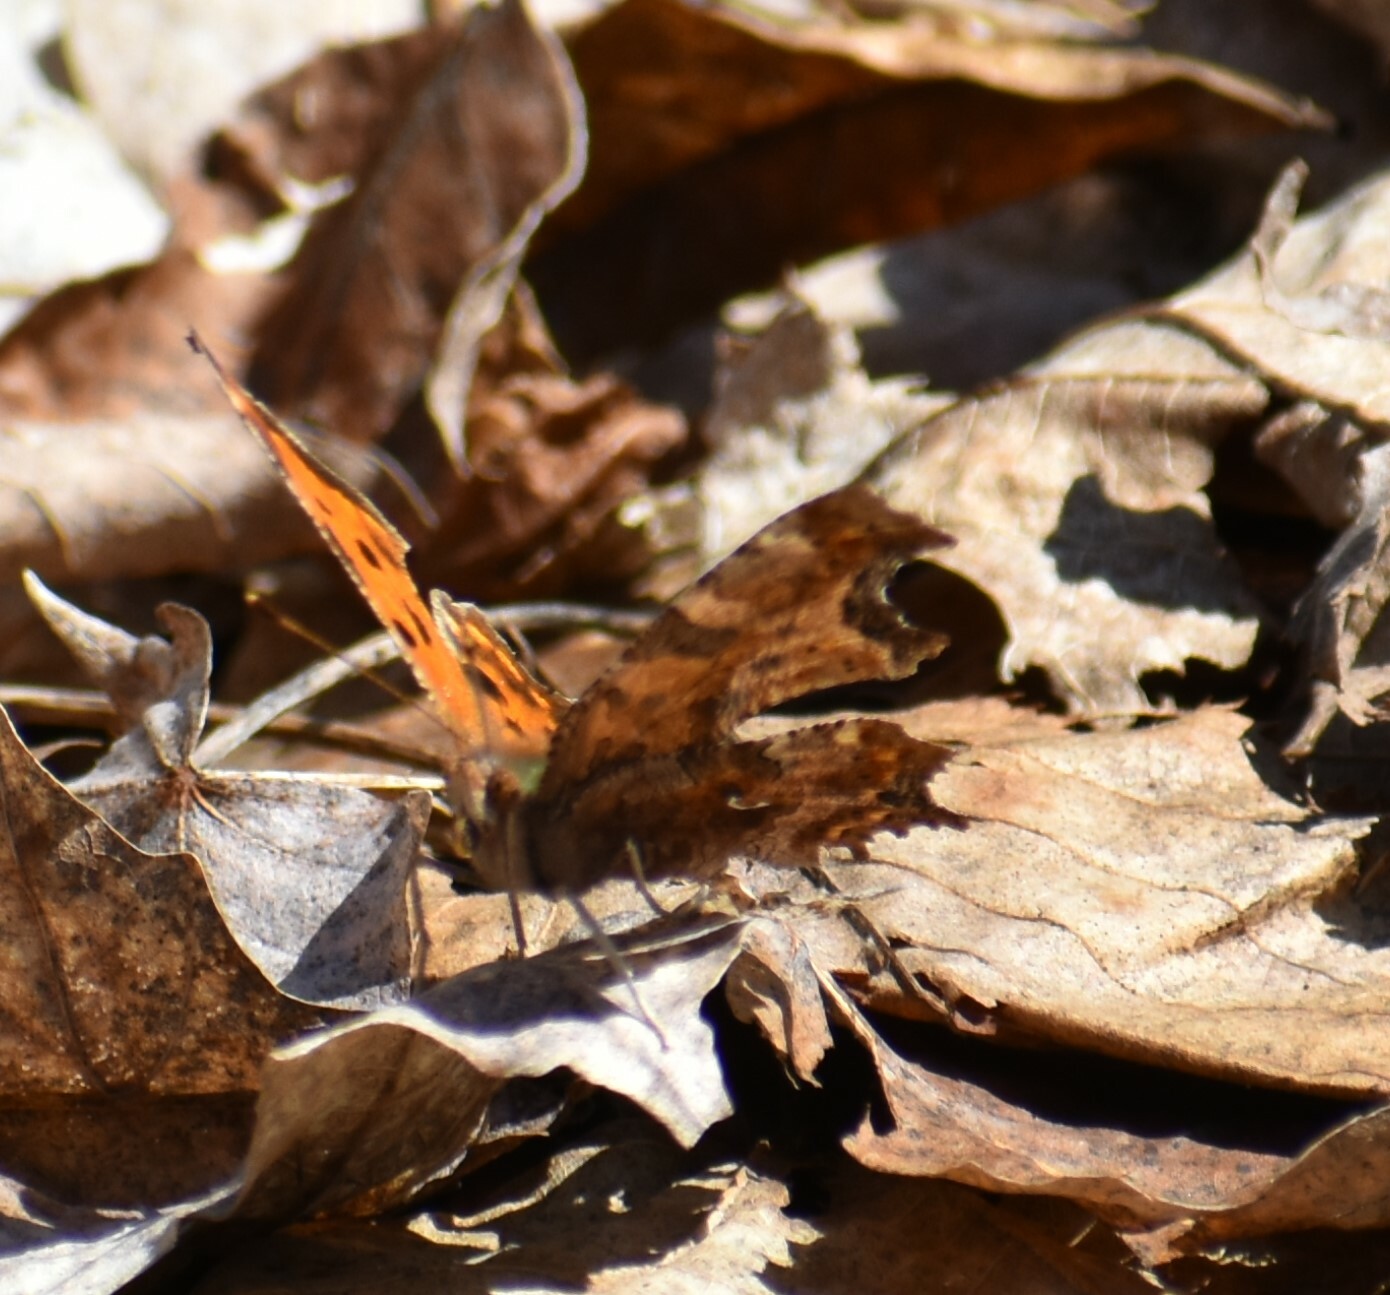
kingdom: Animalia
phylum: Arthropoda
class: Insecta
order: Lepidoptera
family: Nymphalidae
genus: Polygonia
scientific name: Polygonia comma
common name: Eastern comma
